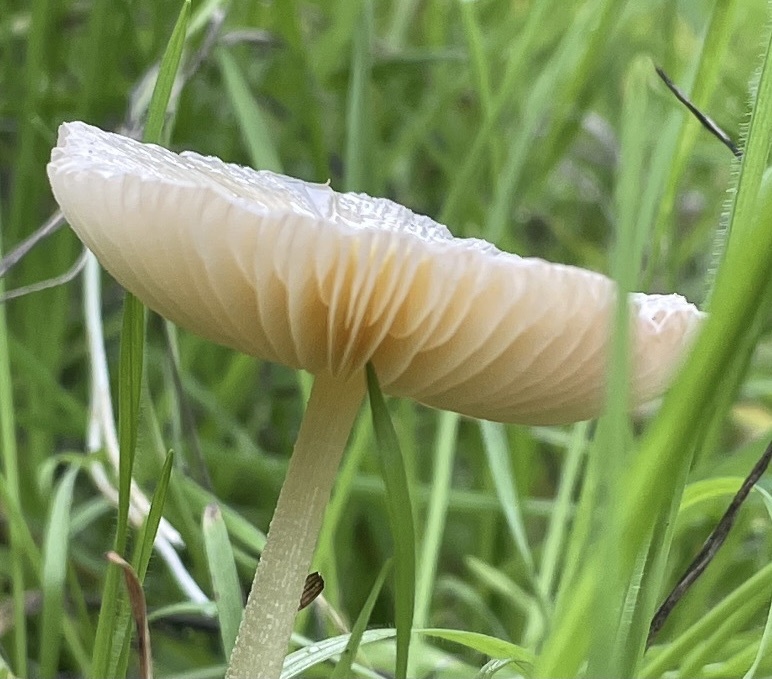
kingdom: Fungi
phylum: Basidiomycota
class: Agaricomycetes
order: Agaricales
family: Bolbitiaceae
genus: Bolbitius
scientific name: Bolbitius titubans
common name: Yellow fieldcap
